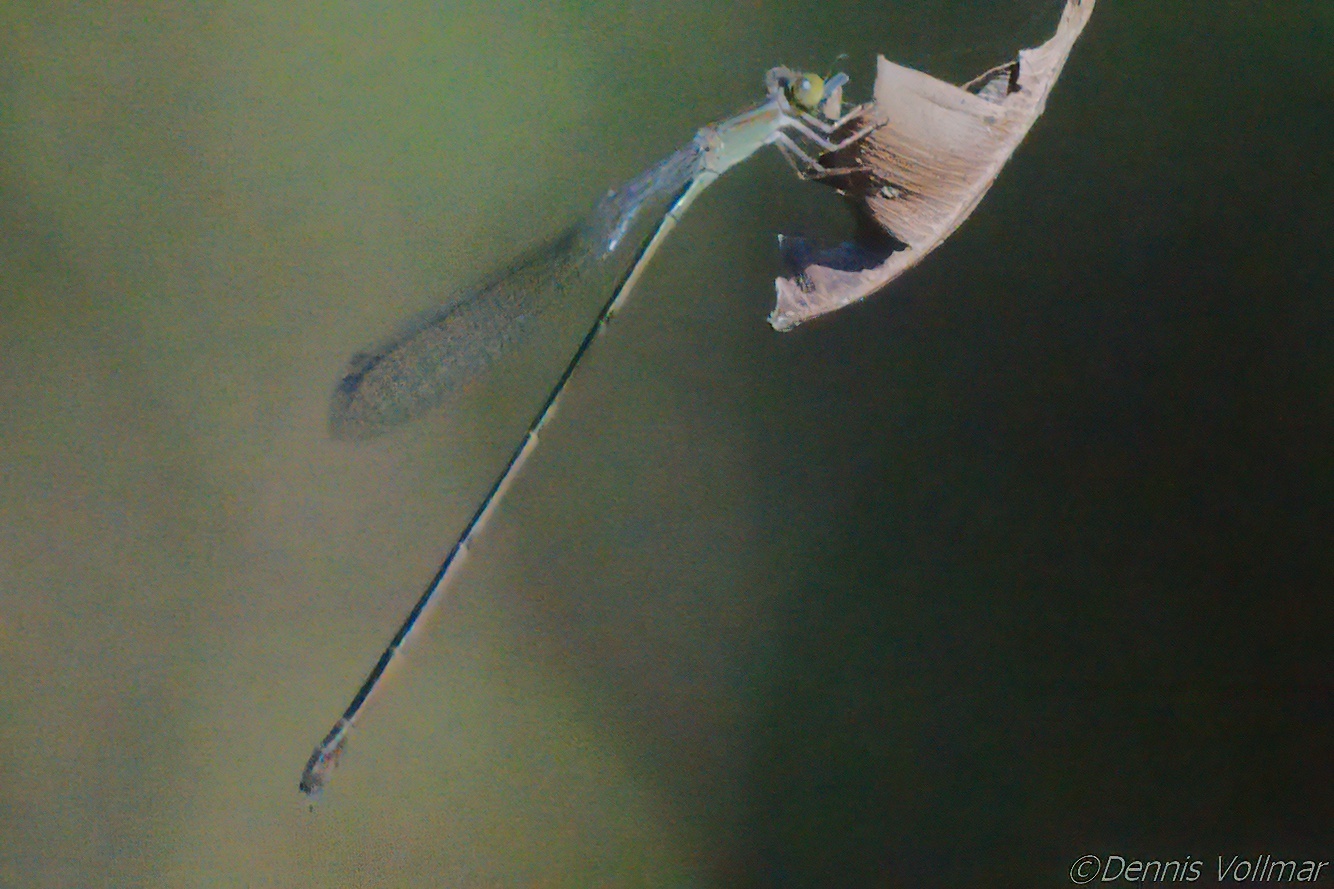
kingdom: Animalia
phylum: Arthropoda
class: Insecta
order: Odonata
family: Coenagrionidae
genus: Leptobasis
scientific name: Leptobasis lucifer
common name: Lucifer swampdamsel
